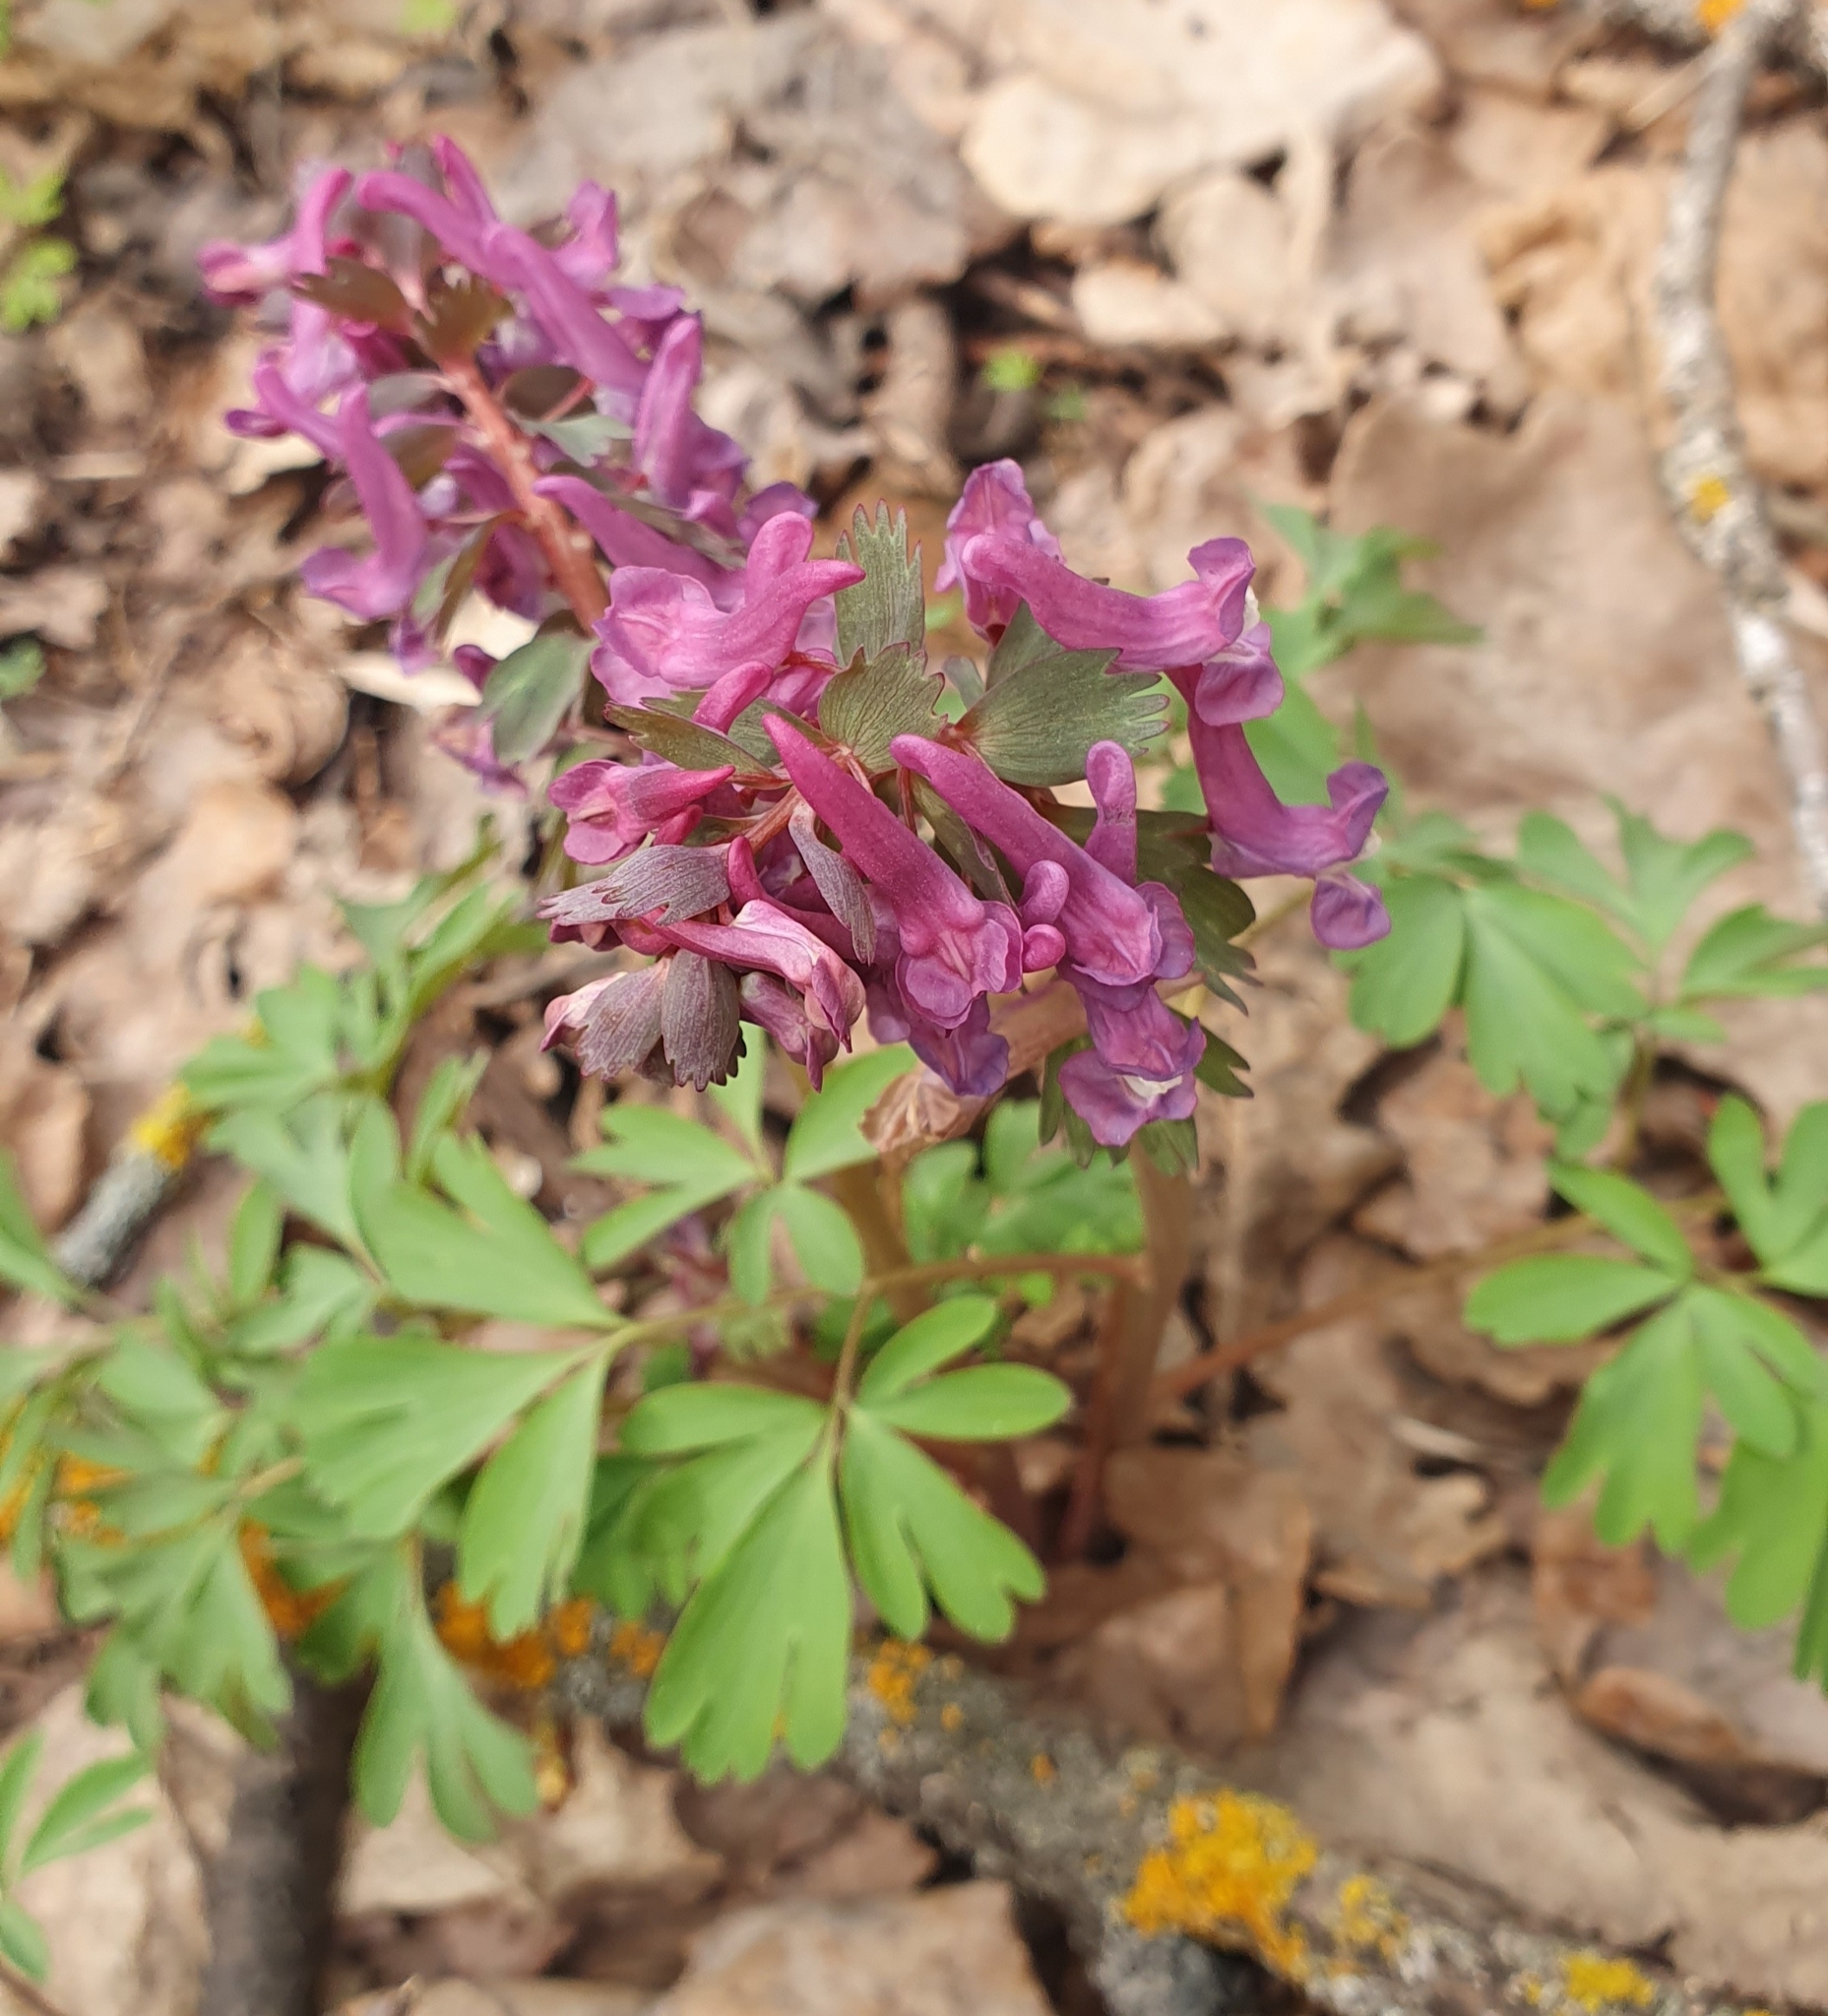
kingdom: Plantae
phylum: Tracheophyta
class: Magnoliopsida
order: Ranunculales
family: Papaveraceae
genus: Corydalis
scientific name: Corydalis solida
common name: Bird-in-a-bush
